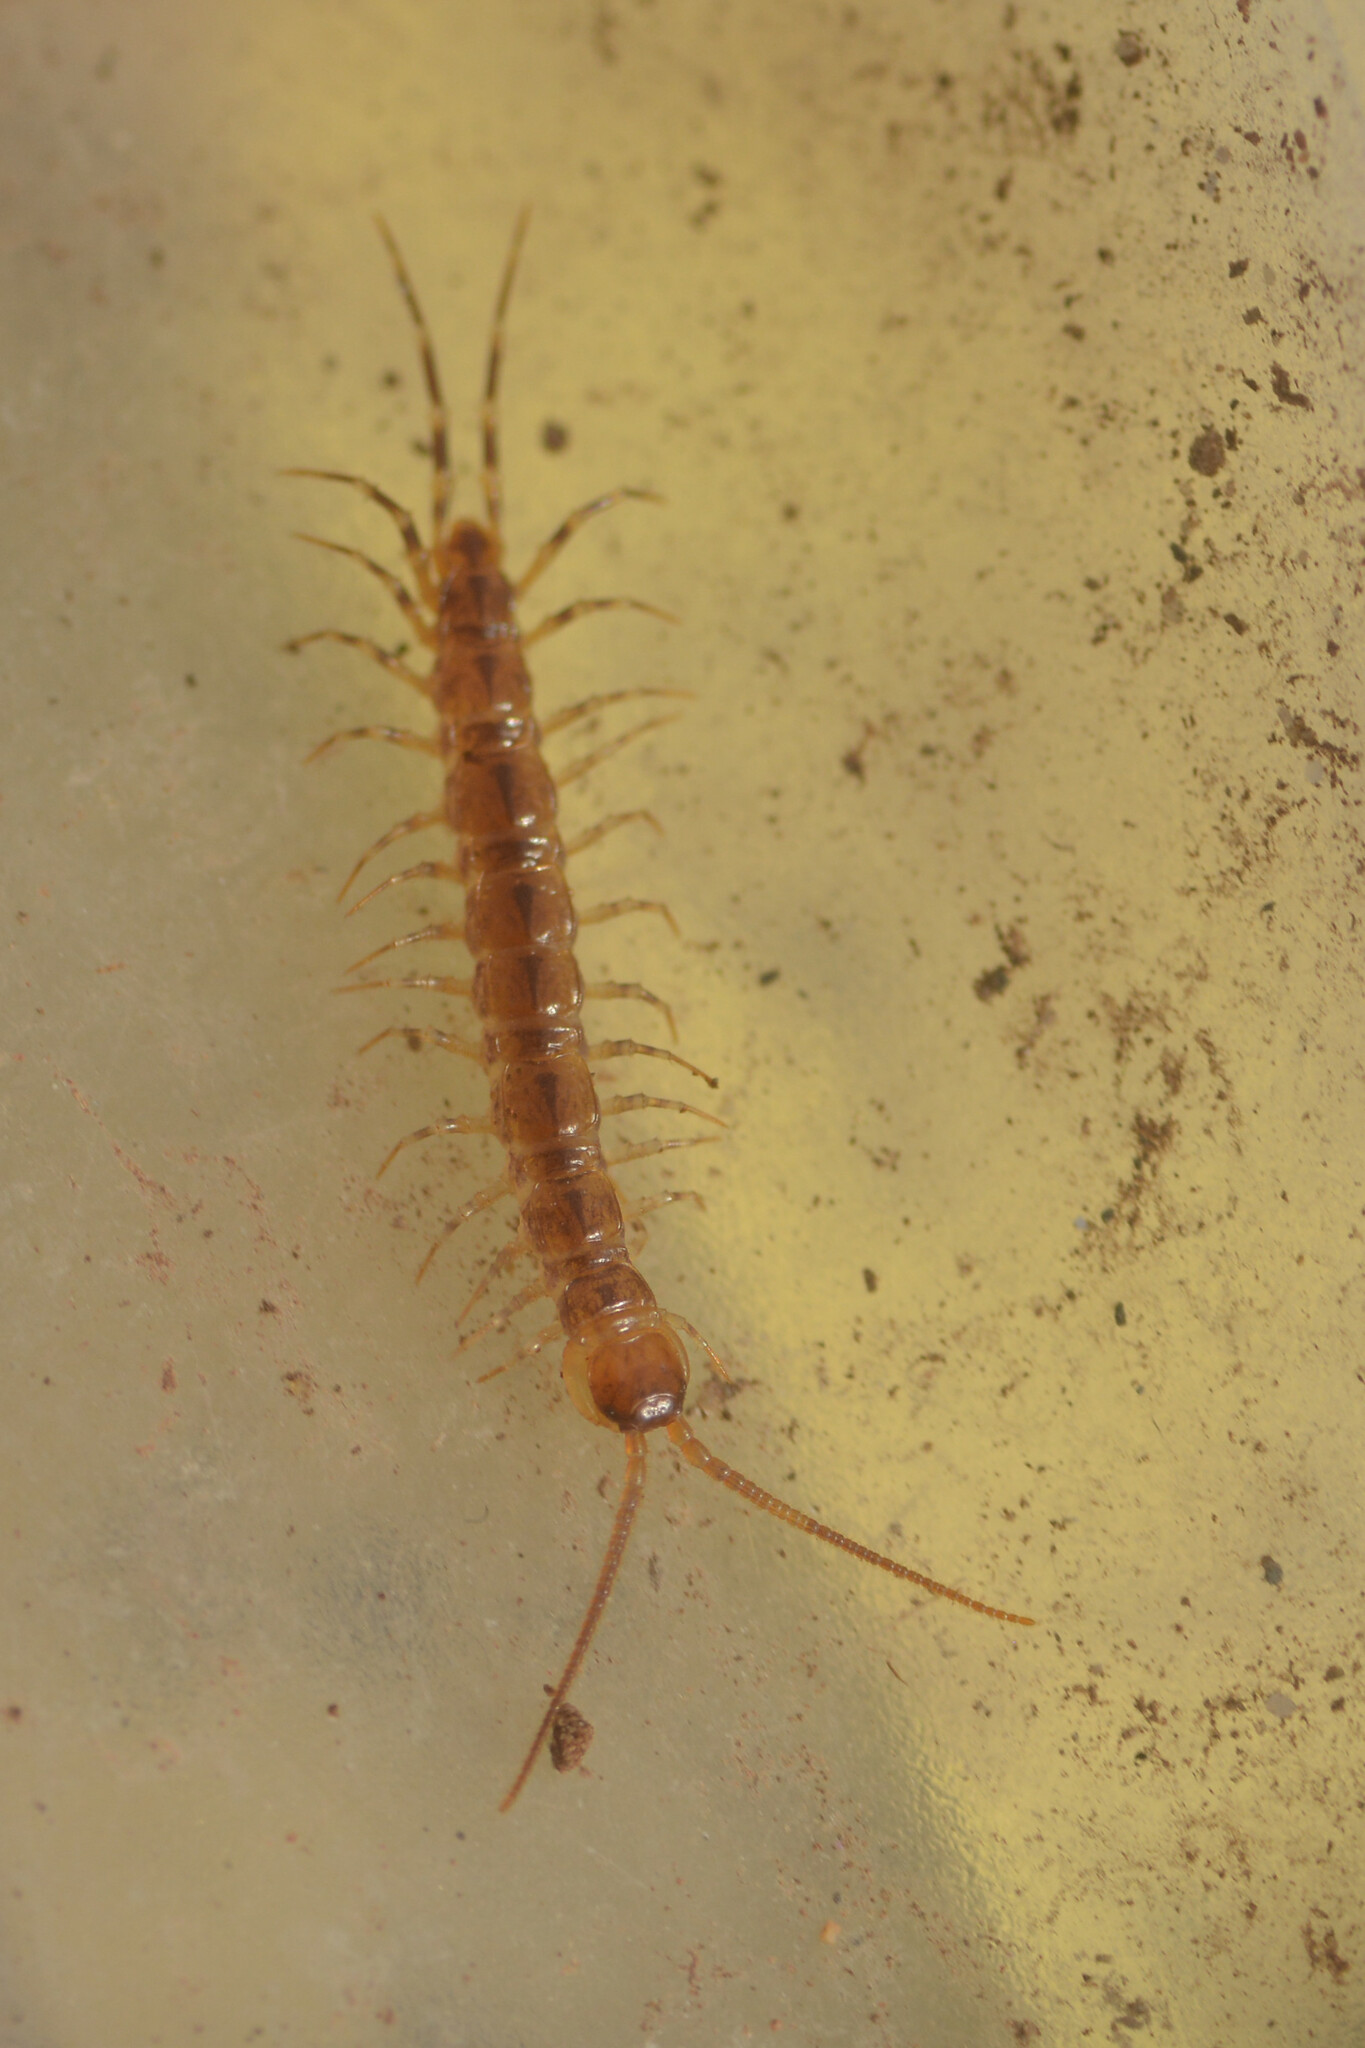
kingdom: Animalia
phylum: Arthropoda
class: Chilopoda
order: Lithobiomorpha
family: Lithobiidae
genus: Lithobius
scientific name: Lithobius variegatus
